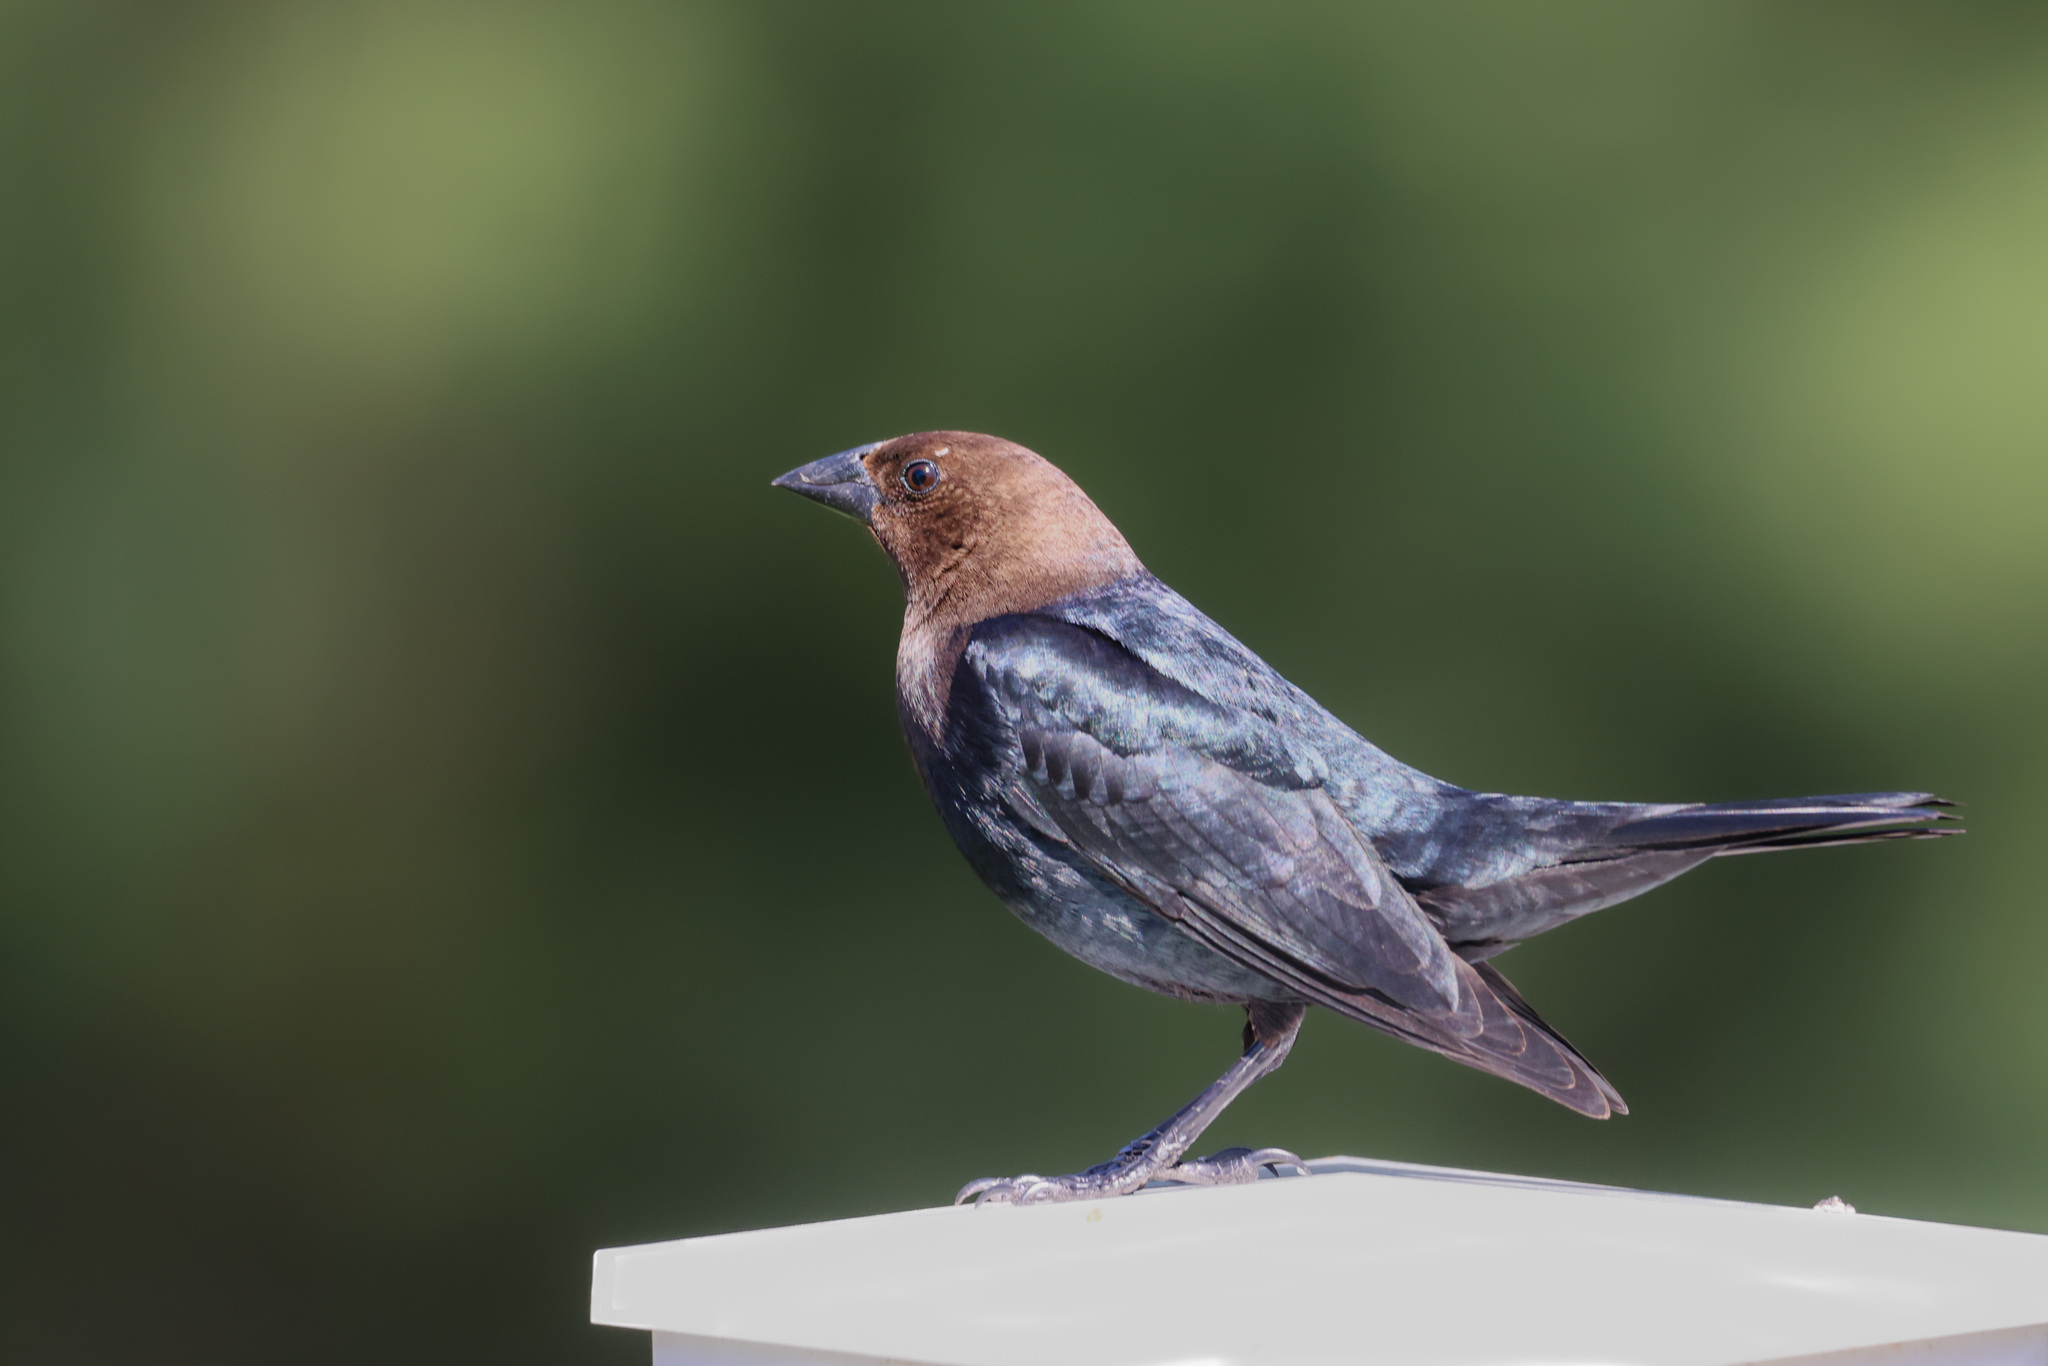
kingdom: Animalia
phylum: Chordata
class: Aves
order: Passeriformes
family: Icteridae
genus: Molothrus
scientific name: Molothrus ater
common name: Brown-headed cowbird
